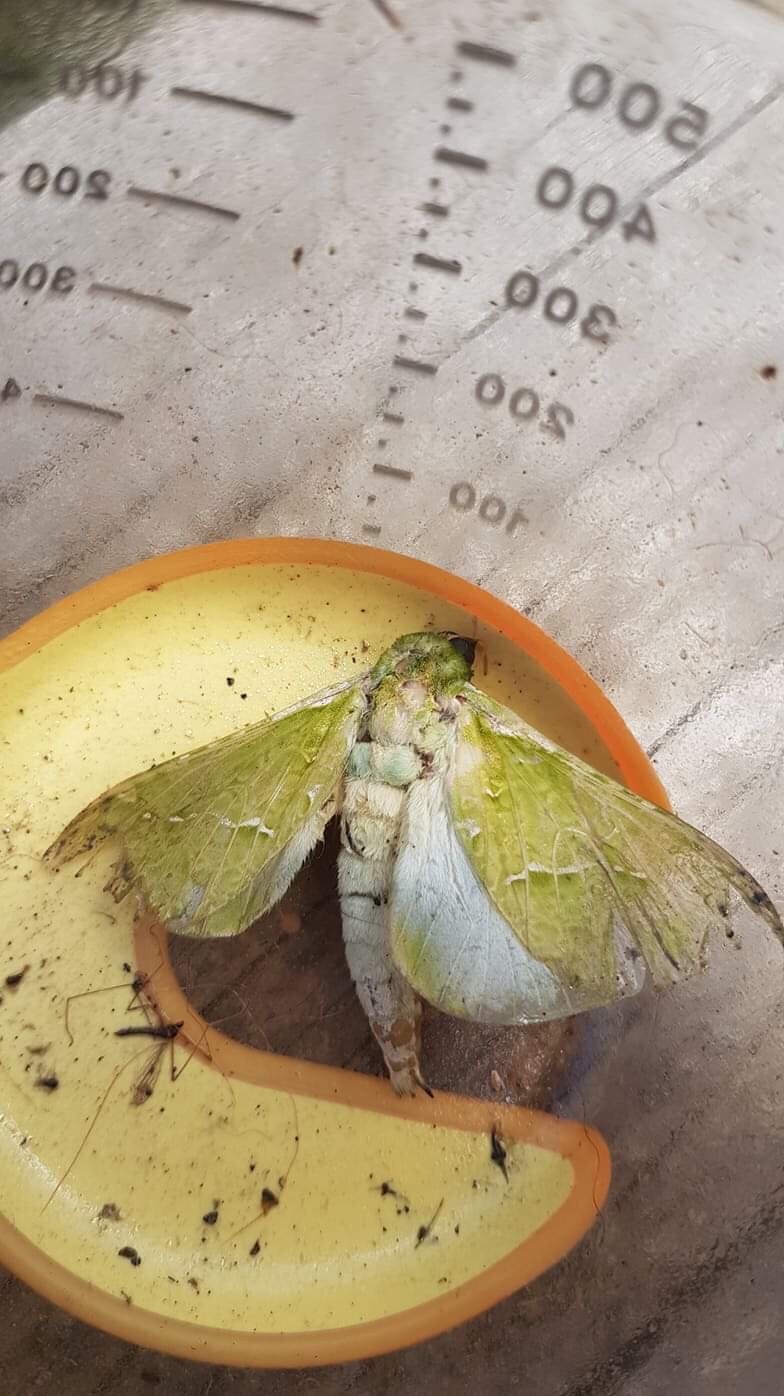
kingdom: Animalia
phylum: Arthropoda
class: Insecta
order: Lepidoptera
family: Hepialidae
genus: Aenetus
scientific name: Aenetus virescens
